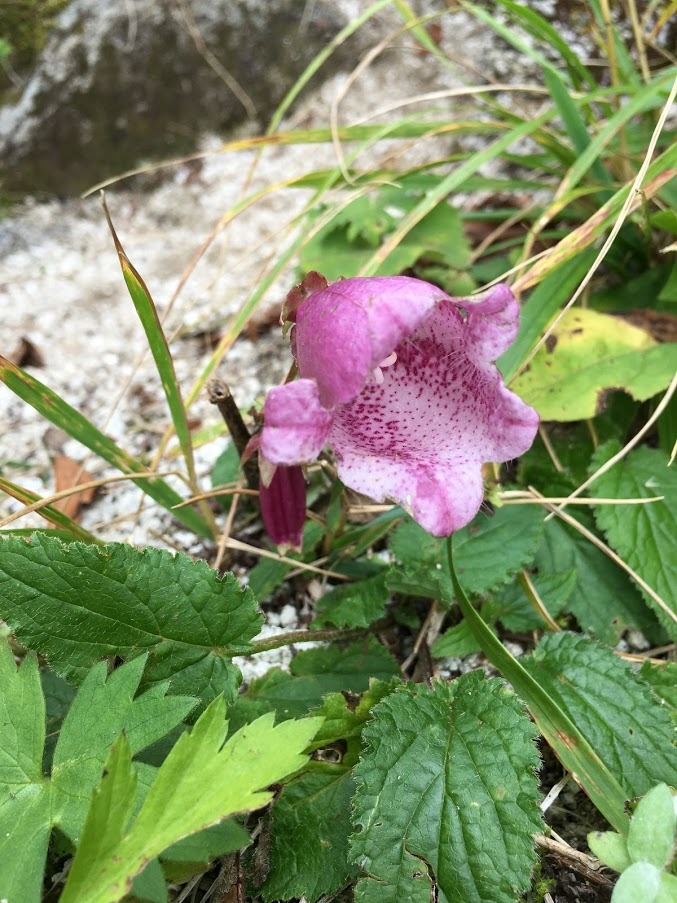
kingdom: Plantae
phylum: Tracheophyta
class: Magnoliopsida
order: Asterales
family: Campanulaceae
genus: Campanula
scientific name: Campanula punctata
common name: Spotted bellflower
